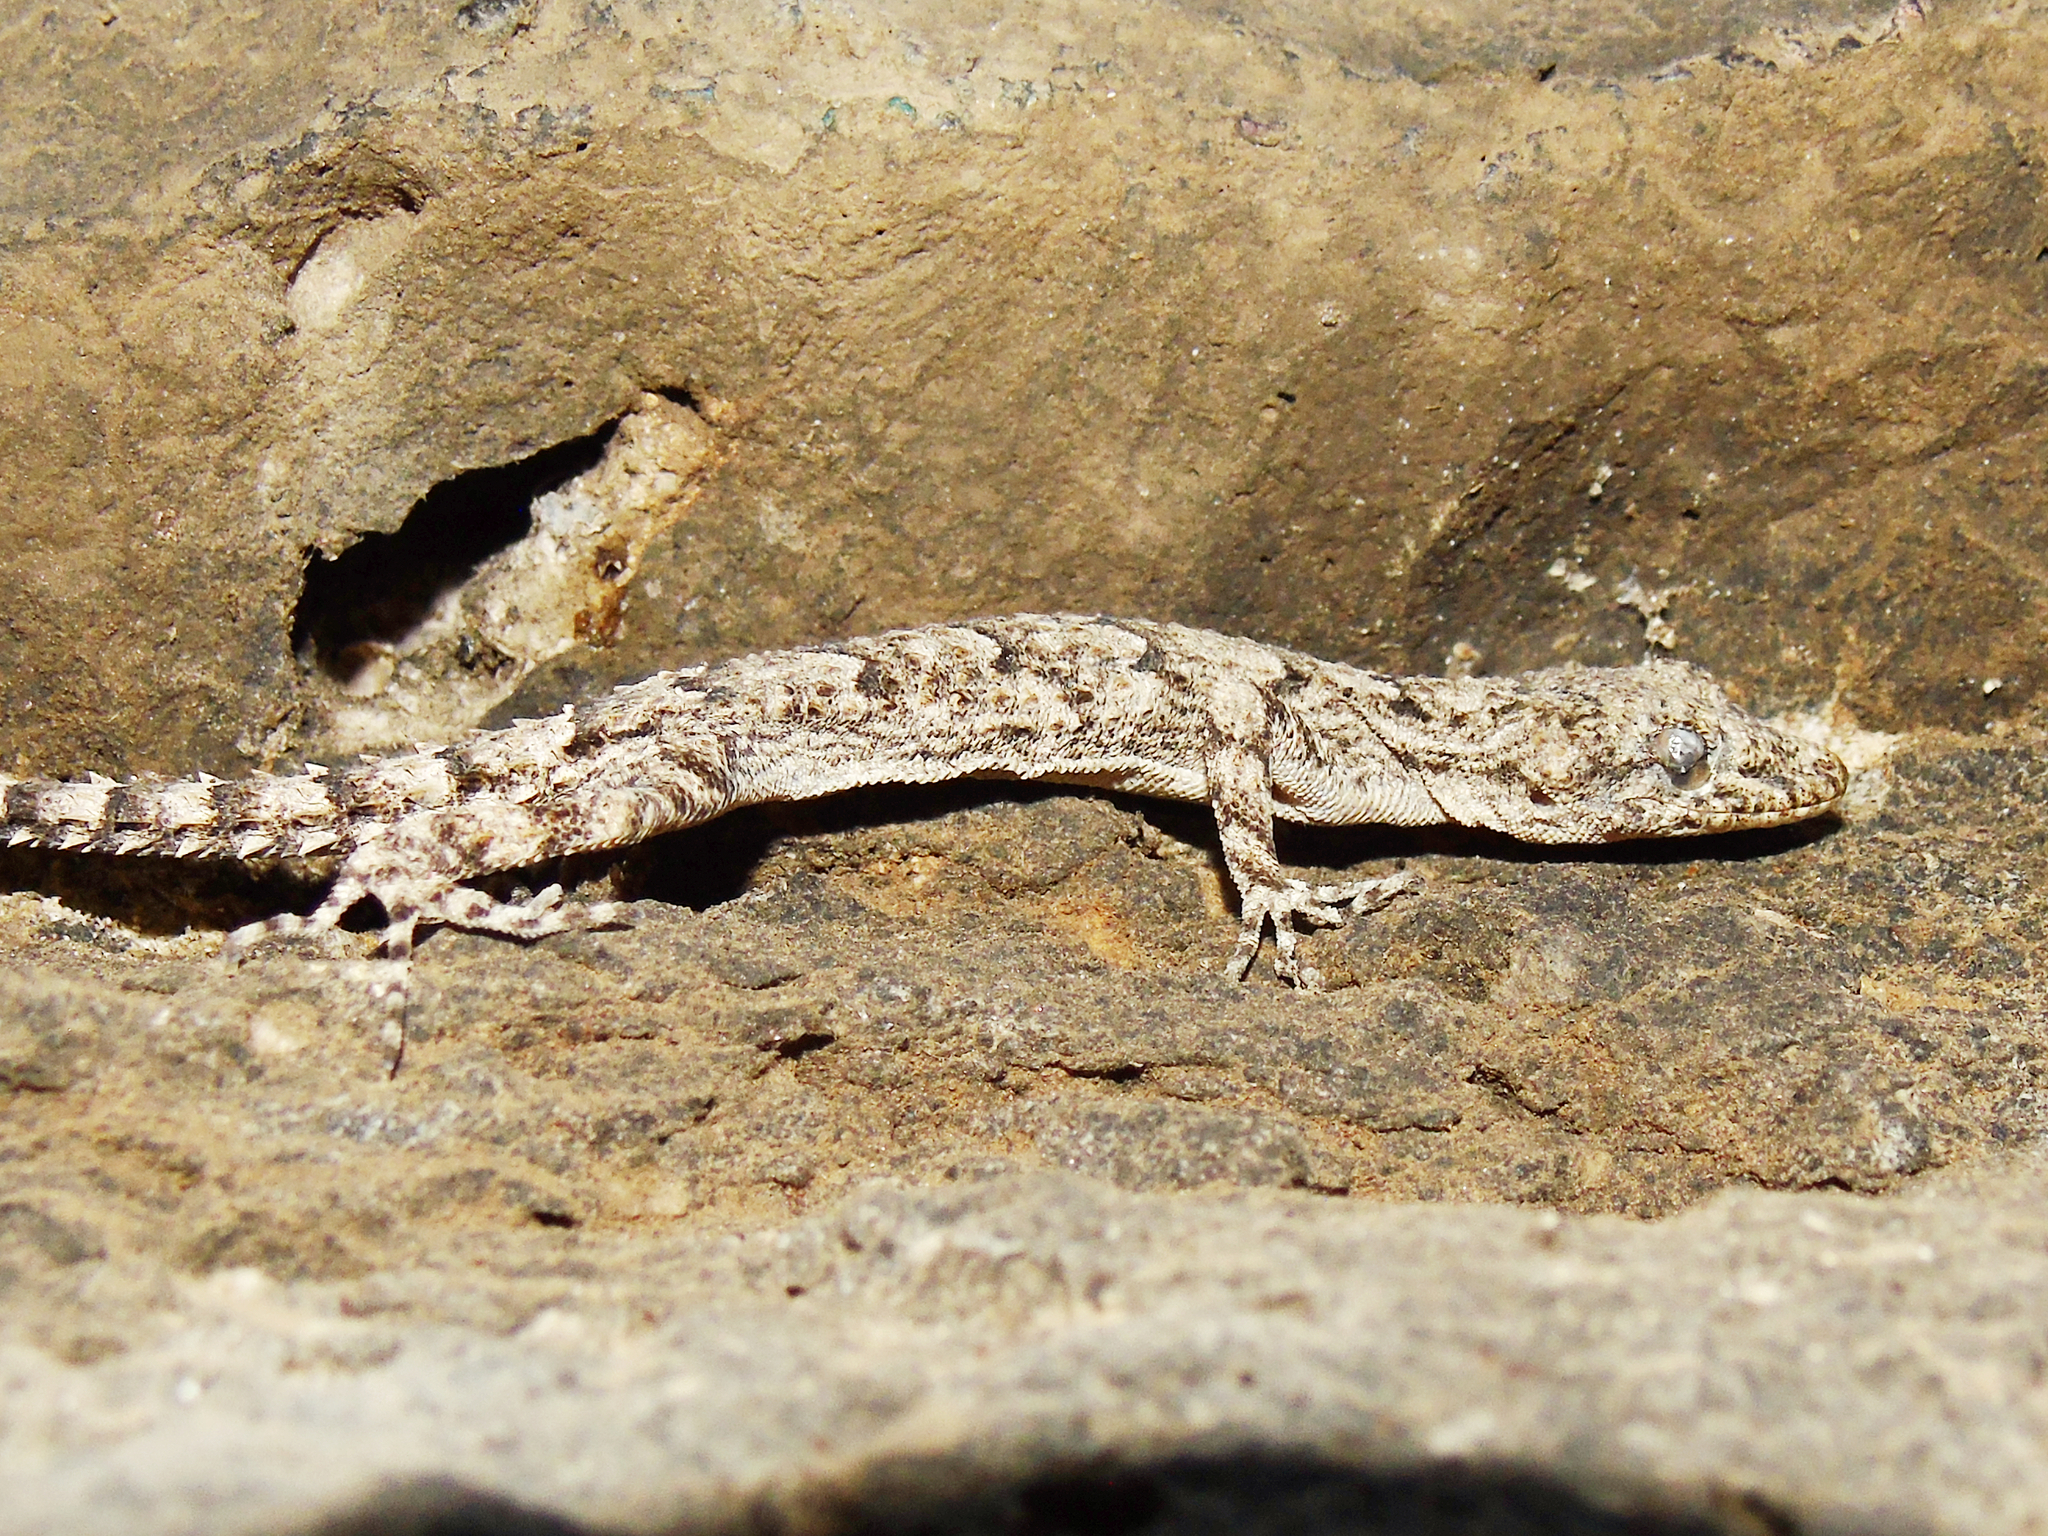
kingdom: Animalia
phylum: Chordata
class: Squamata
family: Gekkonidae
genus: Mediodactylus
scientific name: Mediodactylus heterocercus
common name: Asia minor thin-toed gecko
